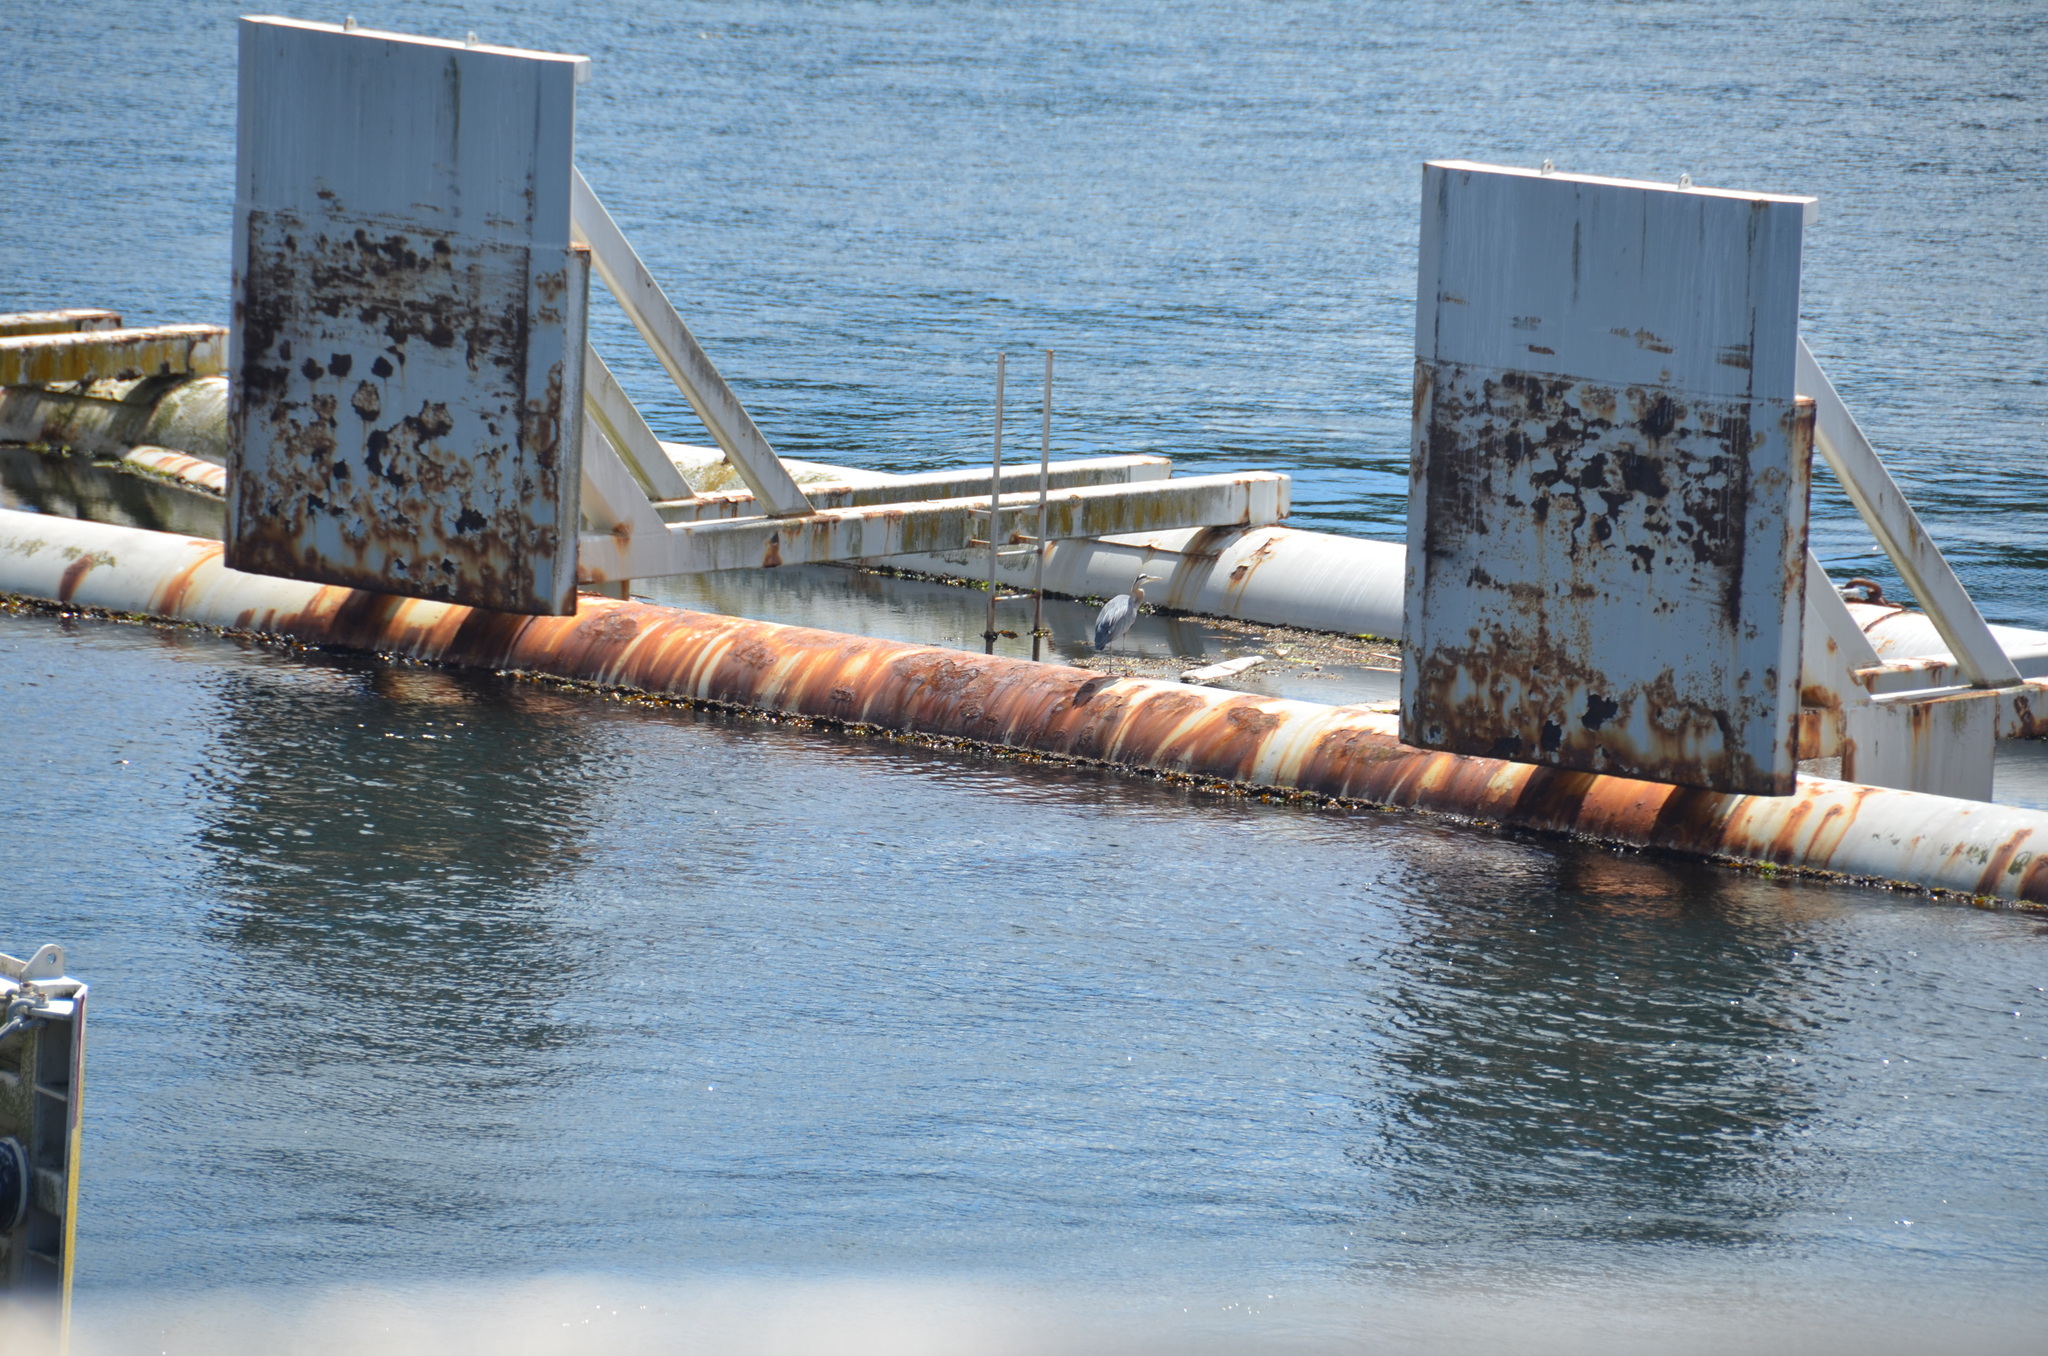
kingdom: Animalia
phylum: Chordata
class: Aves
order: Pelecaniformes
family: Ardeidae
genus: Ardea
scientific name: Ardea herodias
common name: Great blue heron
